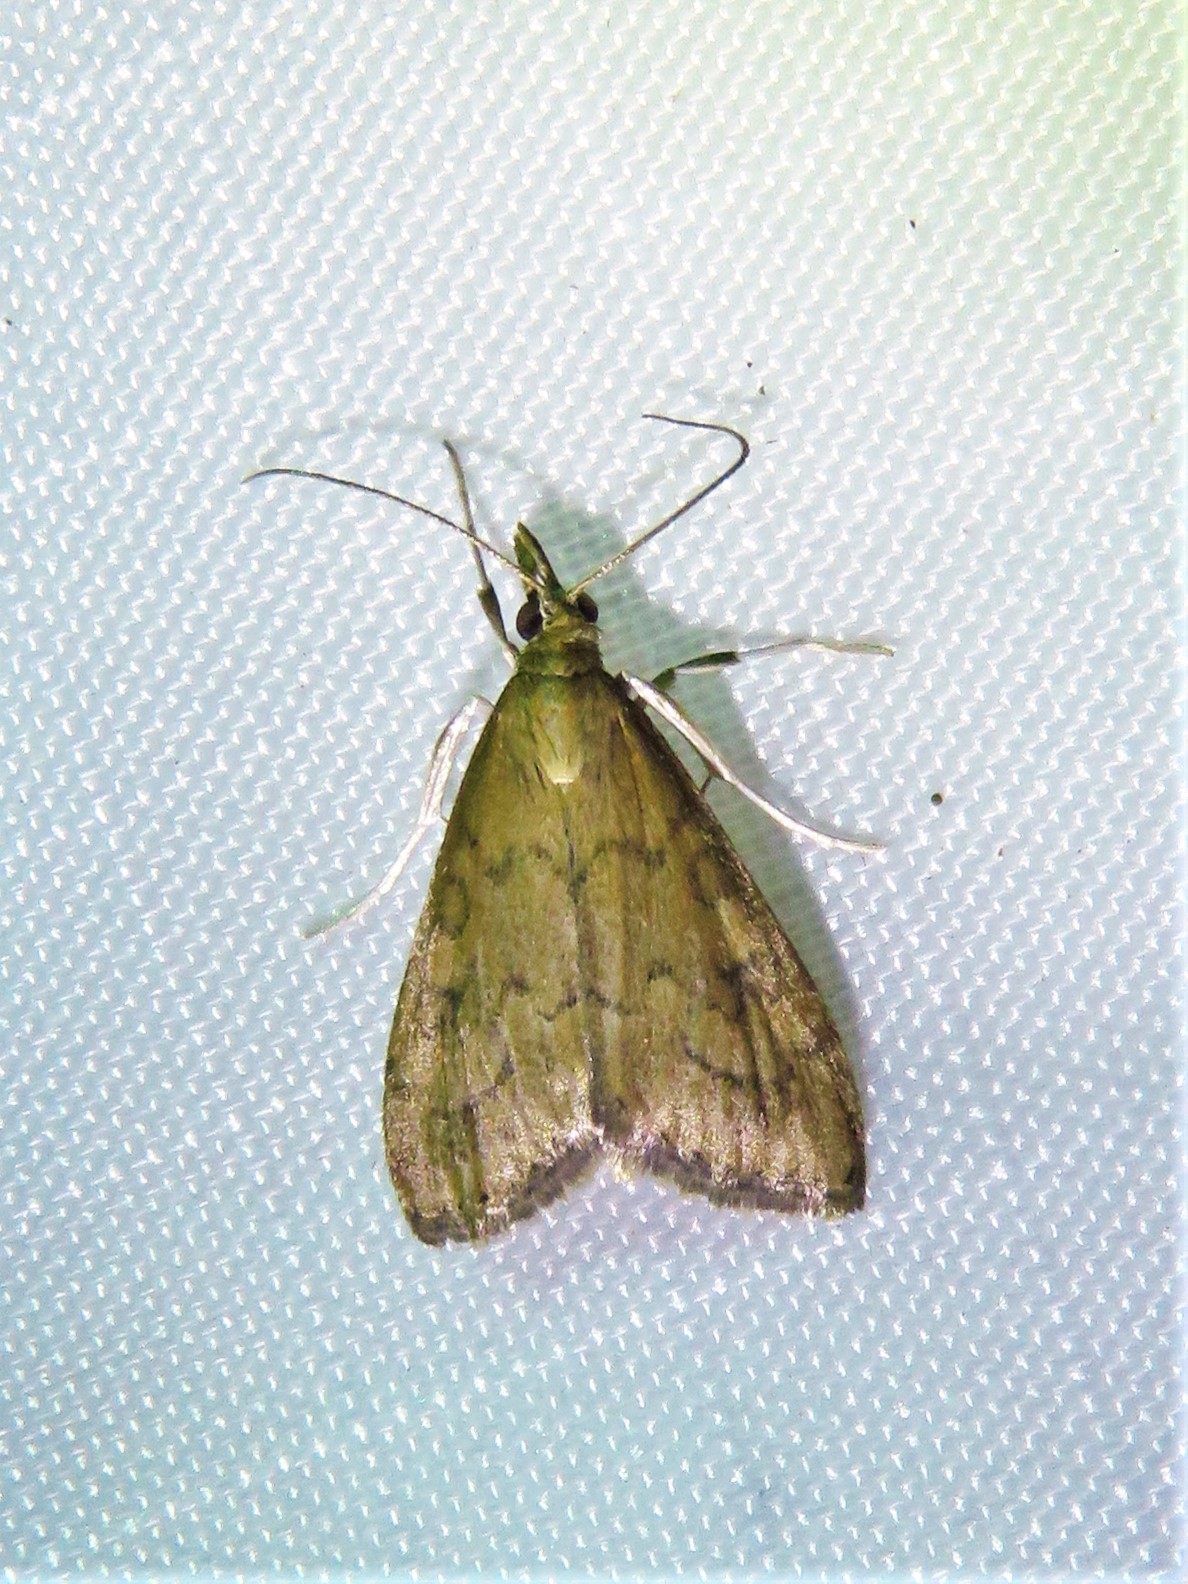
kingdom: Animalia
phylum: Arthropoda
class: Insecta
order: Lepidoptera
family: Crambidae
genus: Udea
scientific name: Udea rubigalis
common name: Celery leaftier moth
